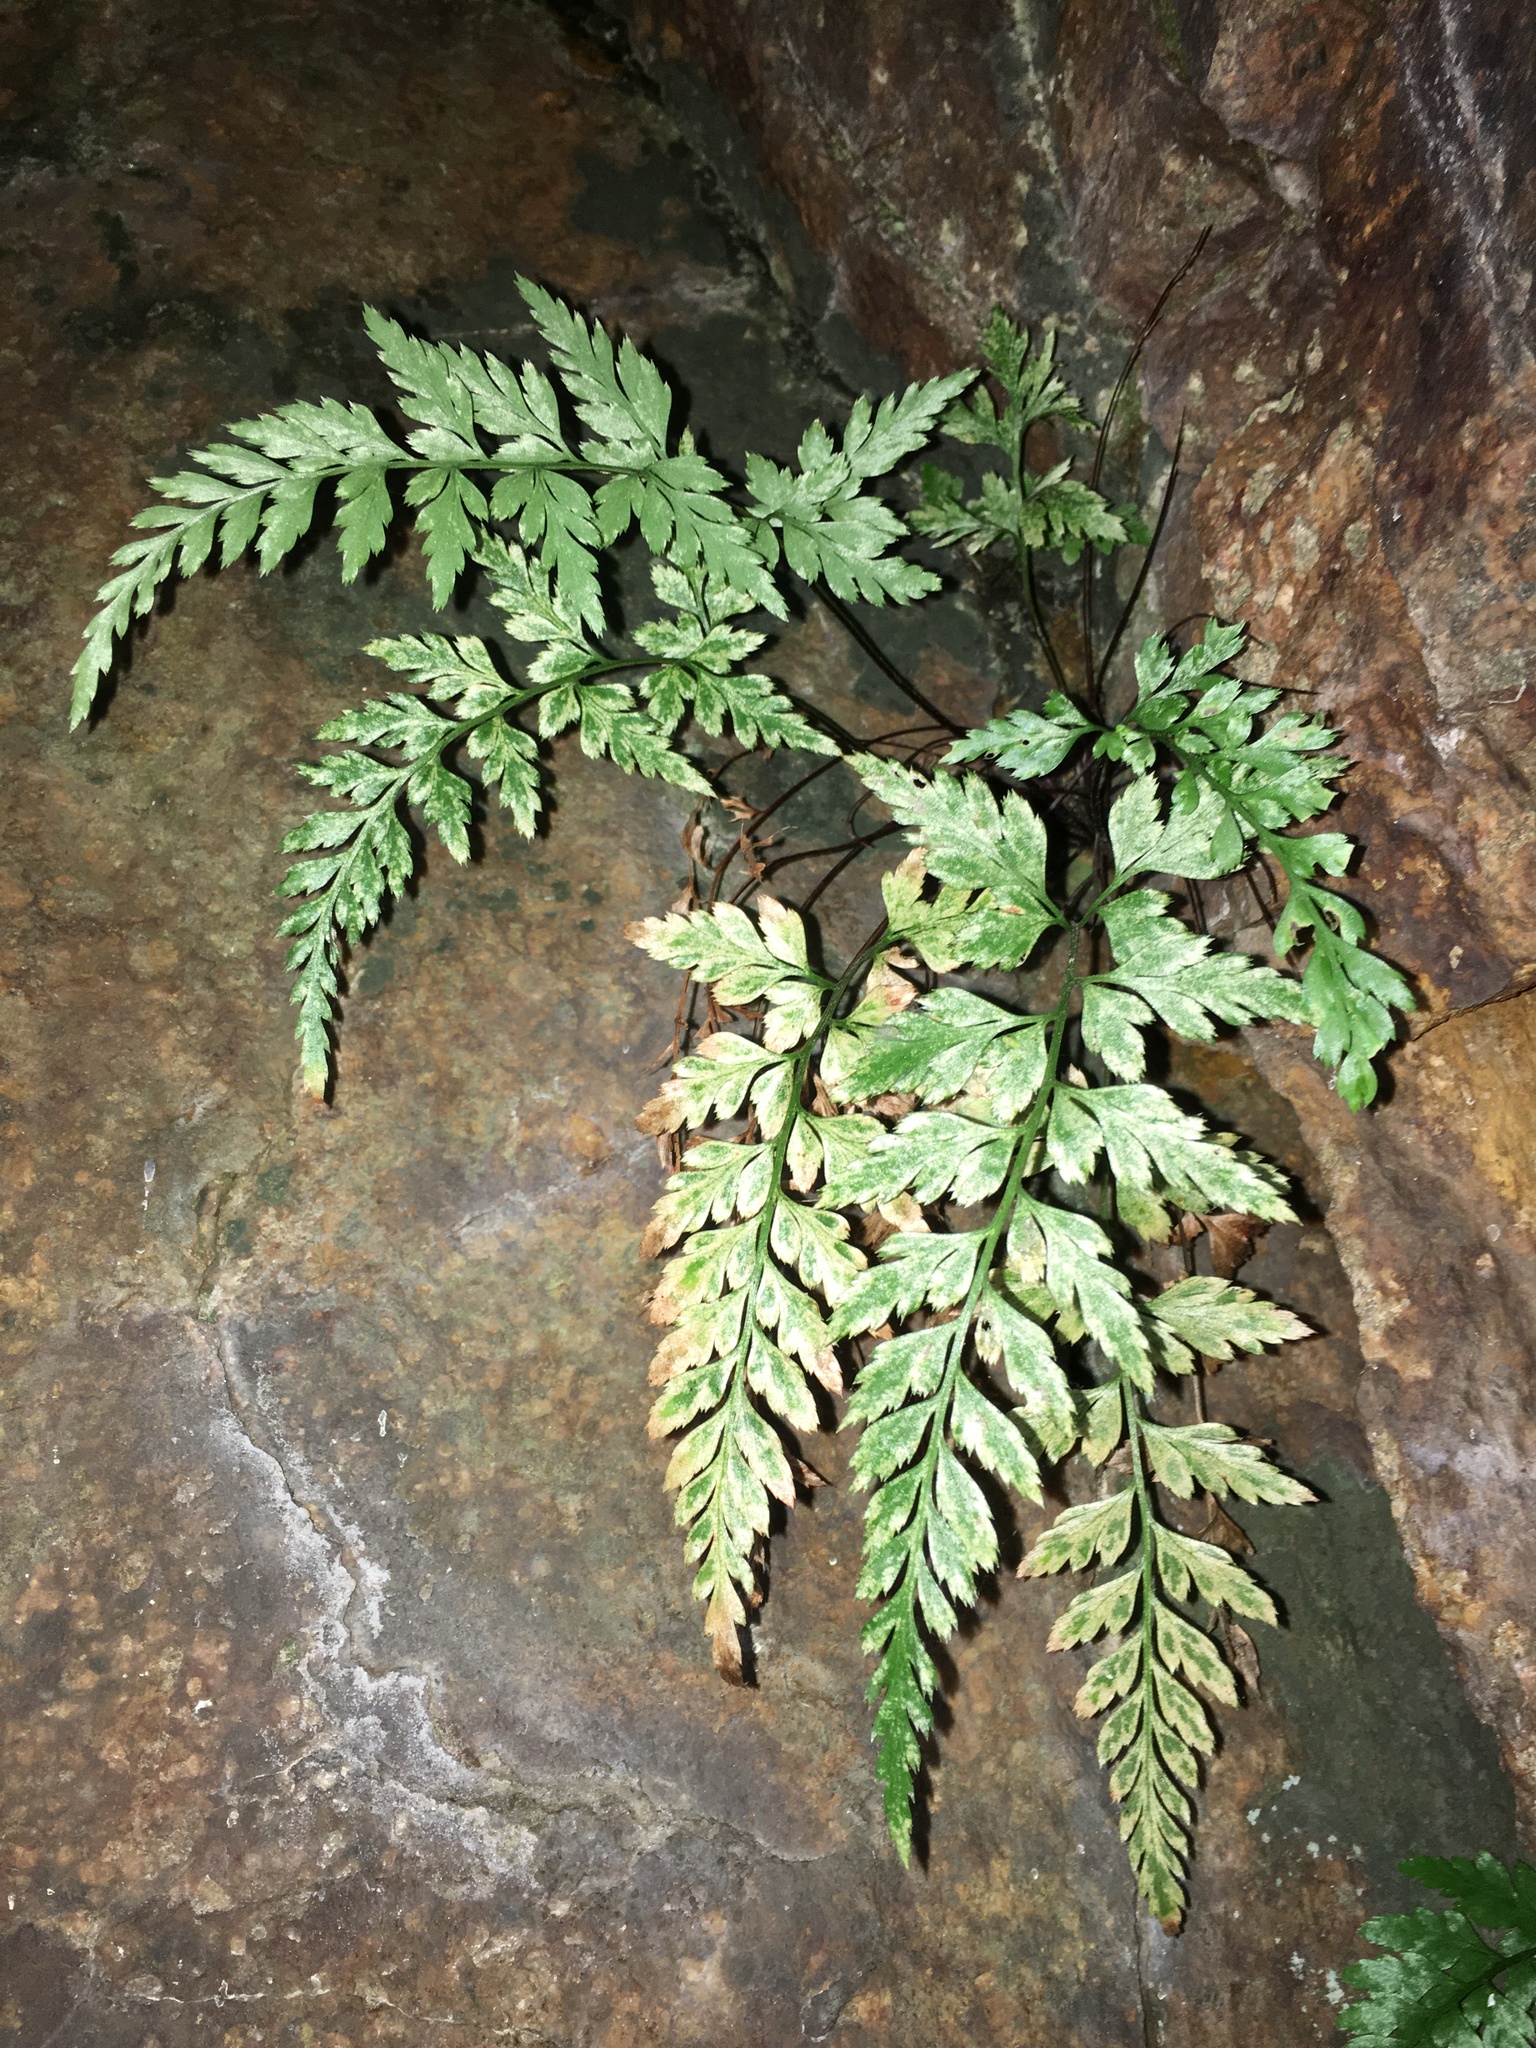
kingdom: Plantae
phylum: Tracheophyta
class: Polypodiopsida
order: Polypodiales
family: Aspleniaceae
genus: Asplenium
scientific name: Asplenium adiantum-nigrum
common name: Black spleenwort
